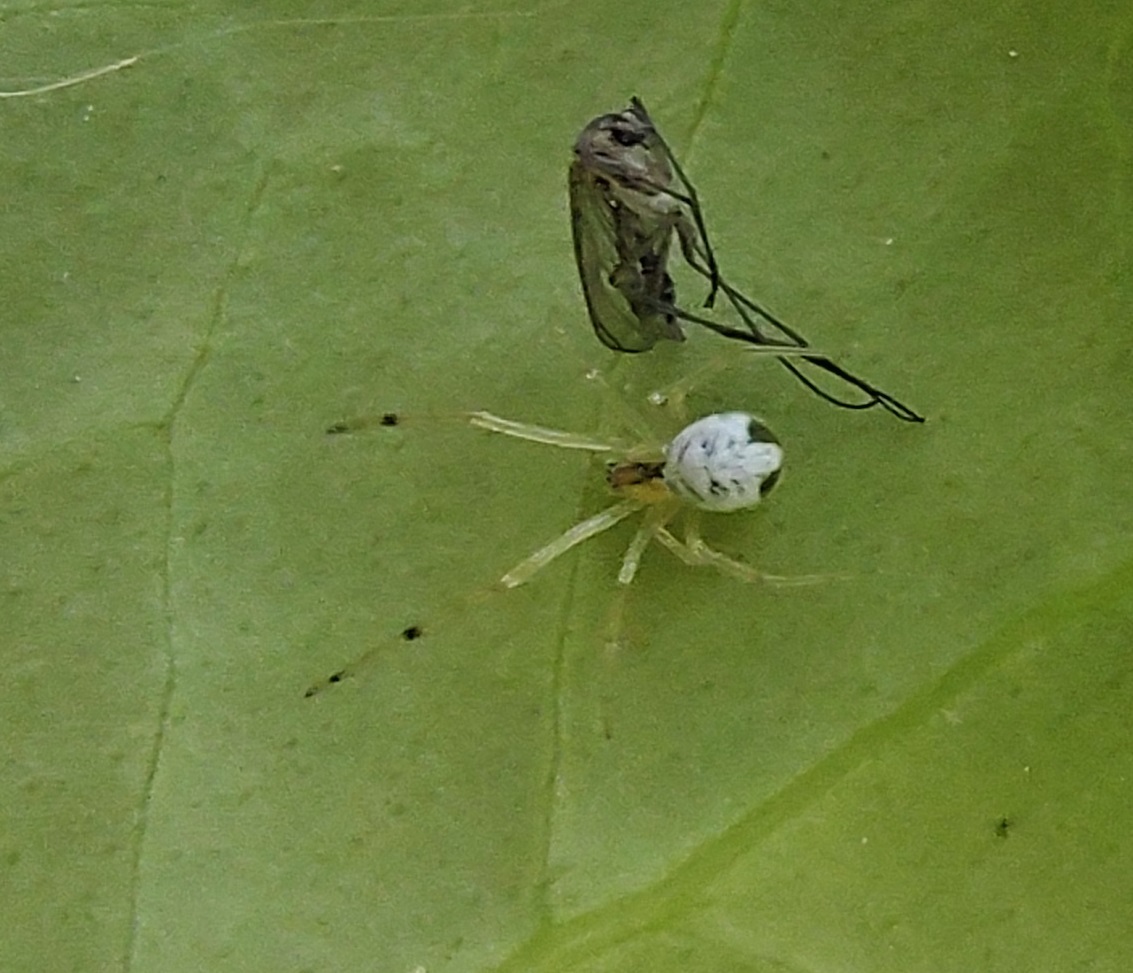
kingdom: Animalia
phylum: Arthropoda
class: Arachnida
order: Araneae
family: Theridiidae
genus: Theridion
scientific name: Theridion calcynatum
